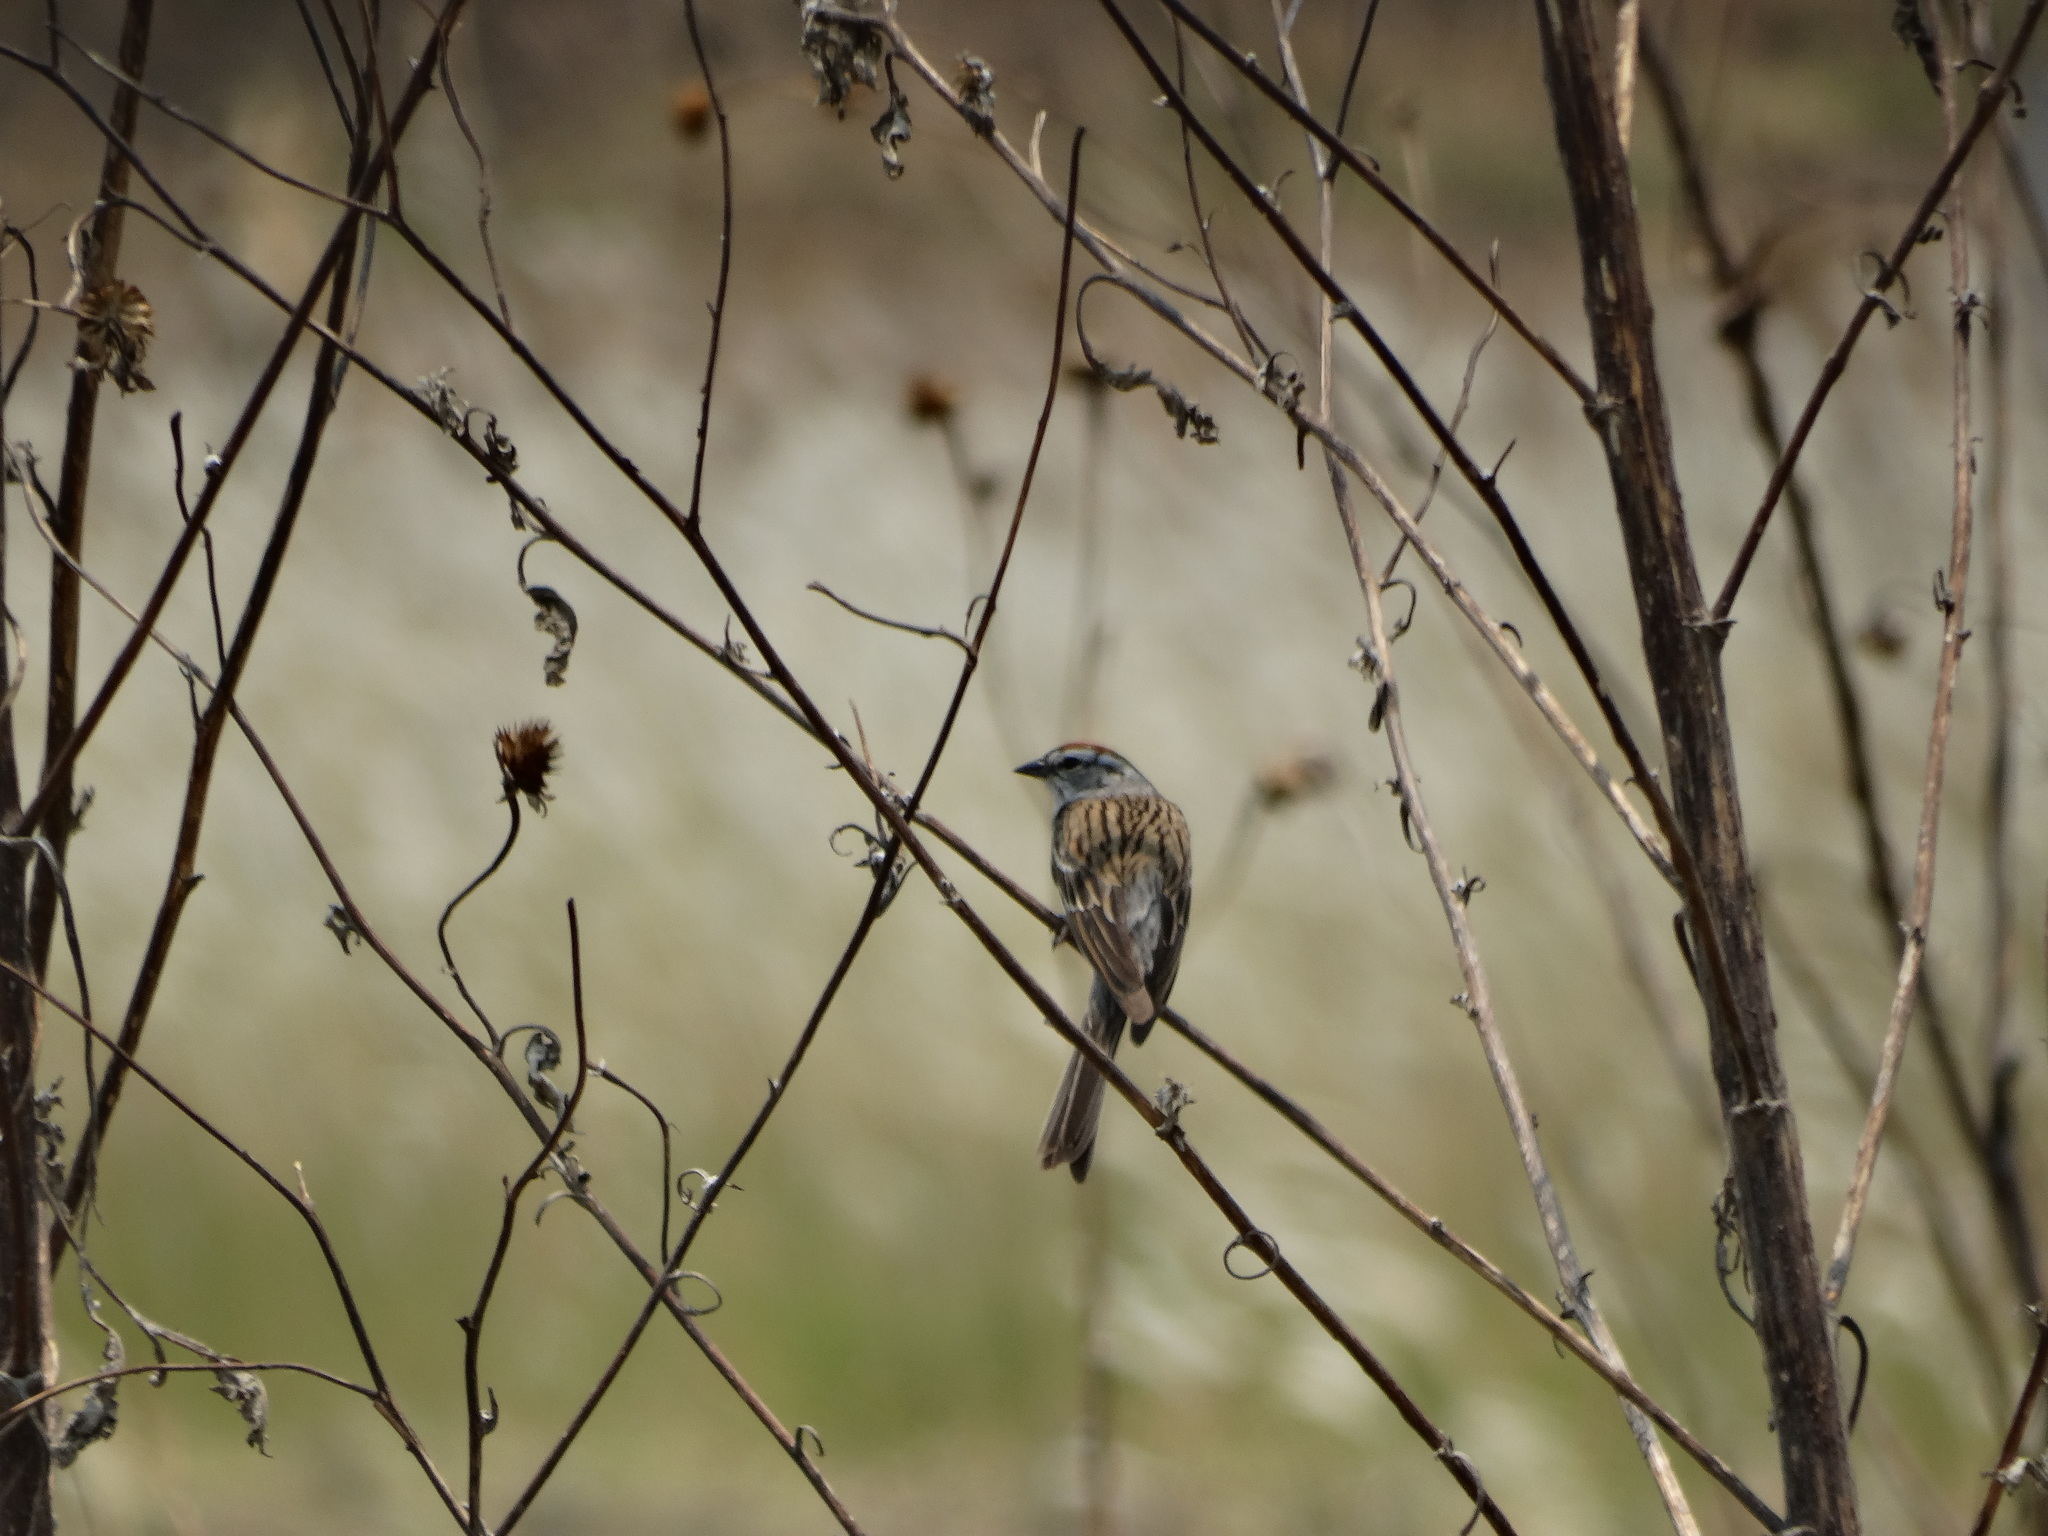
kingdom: Animalia
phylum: Chordata
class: Aves
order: Passeriformes
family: Passerellidae
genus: Spizella
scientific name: Spizella passerina
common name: Chipping sparrow
